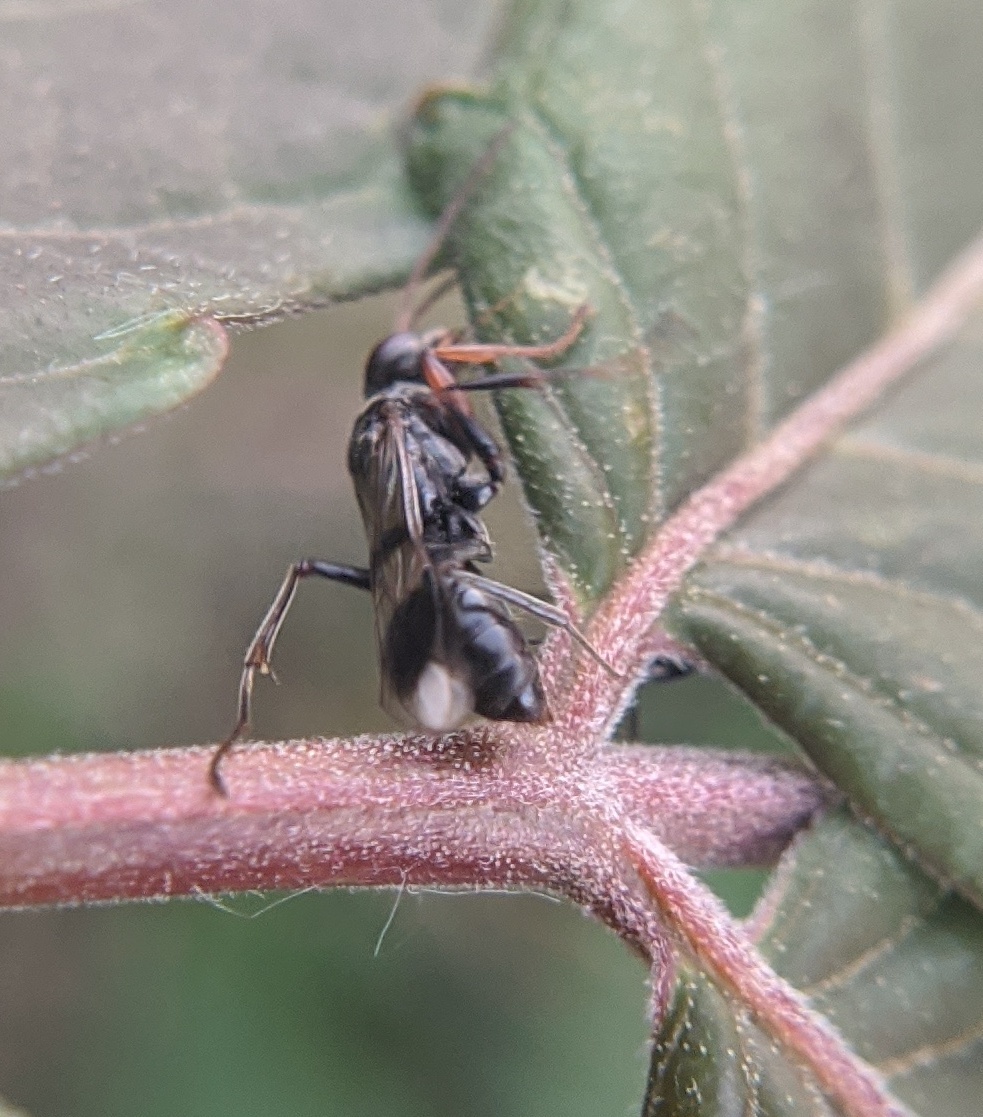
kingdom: Animalia
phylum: Arthropoda
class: Insecta
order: Hymenoptera
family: Pompilidae
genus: Dipogon
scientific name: Dipogon calipterus
